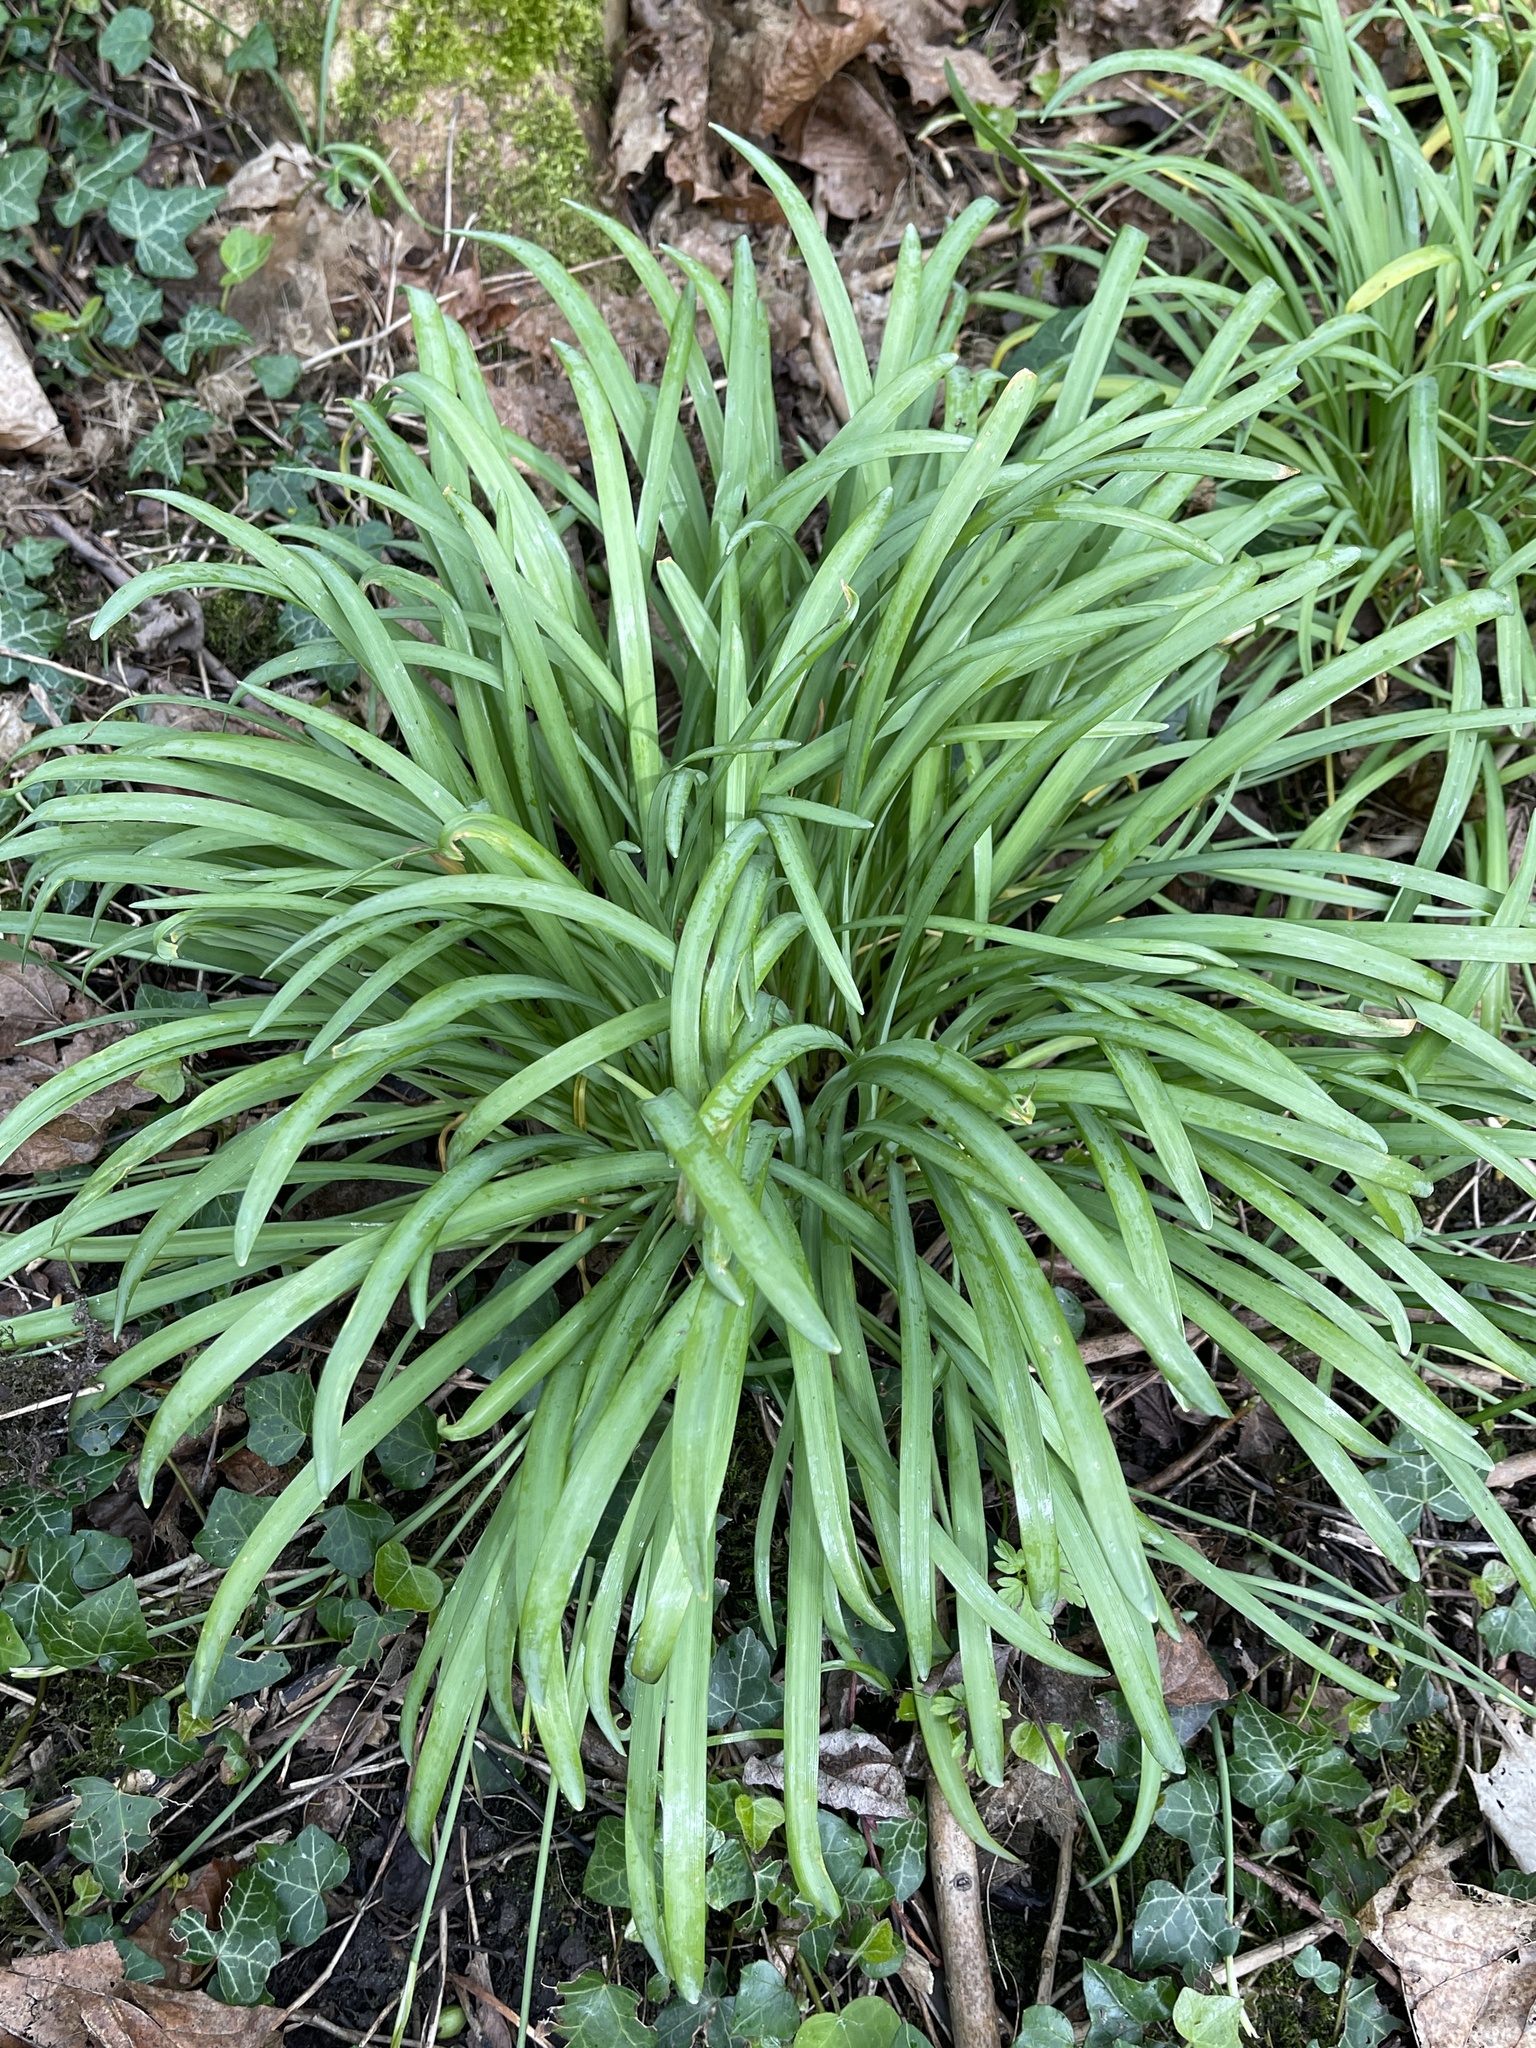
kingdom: Plantae
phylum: Tracheophyta
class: Liliopsida
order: Asparagales
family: Amaryllidaceae
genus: Galanthus
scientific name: Galanthus nivalis
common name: Snowdrop
